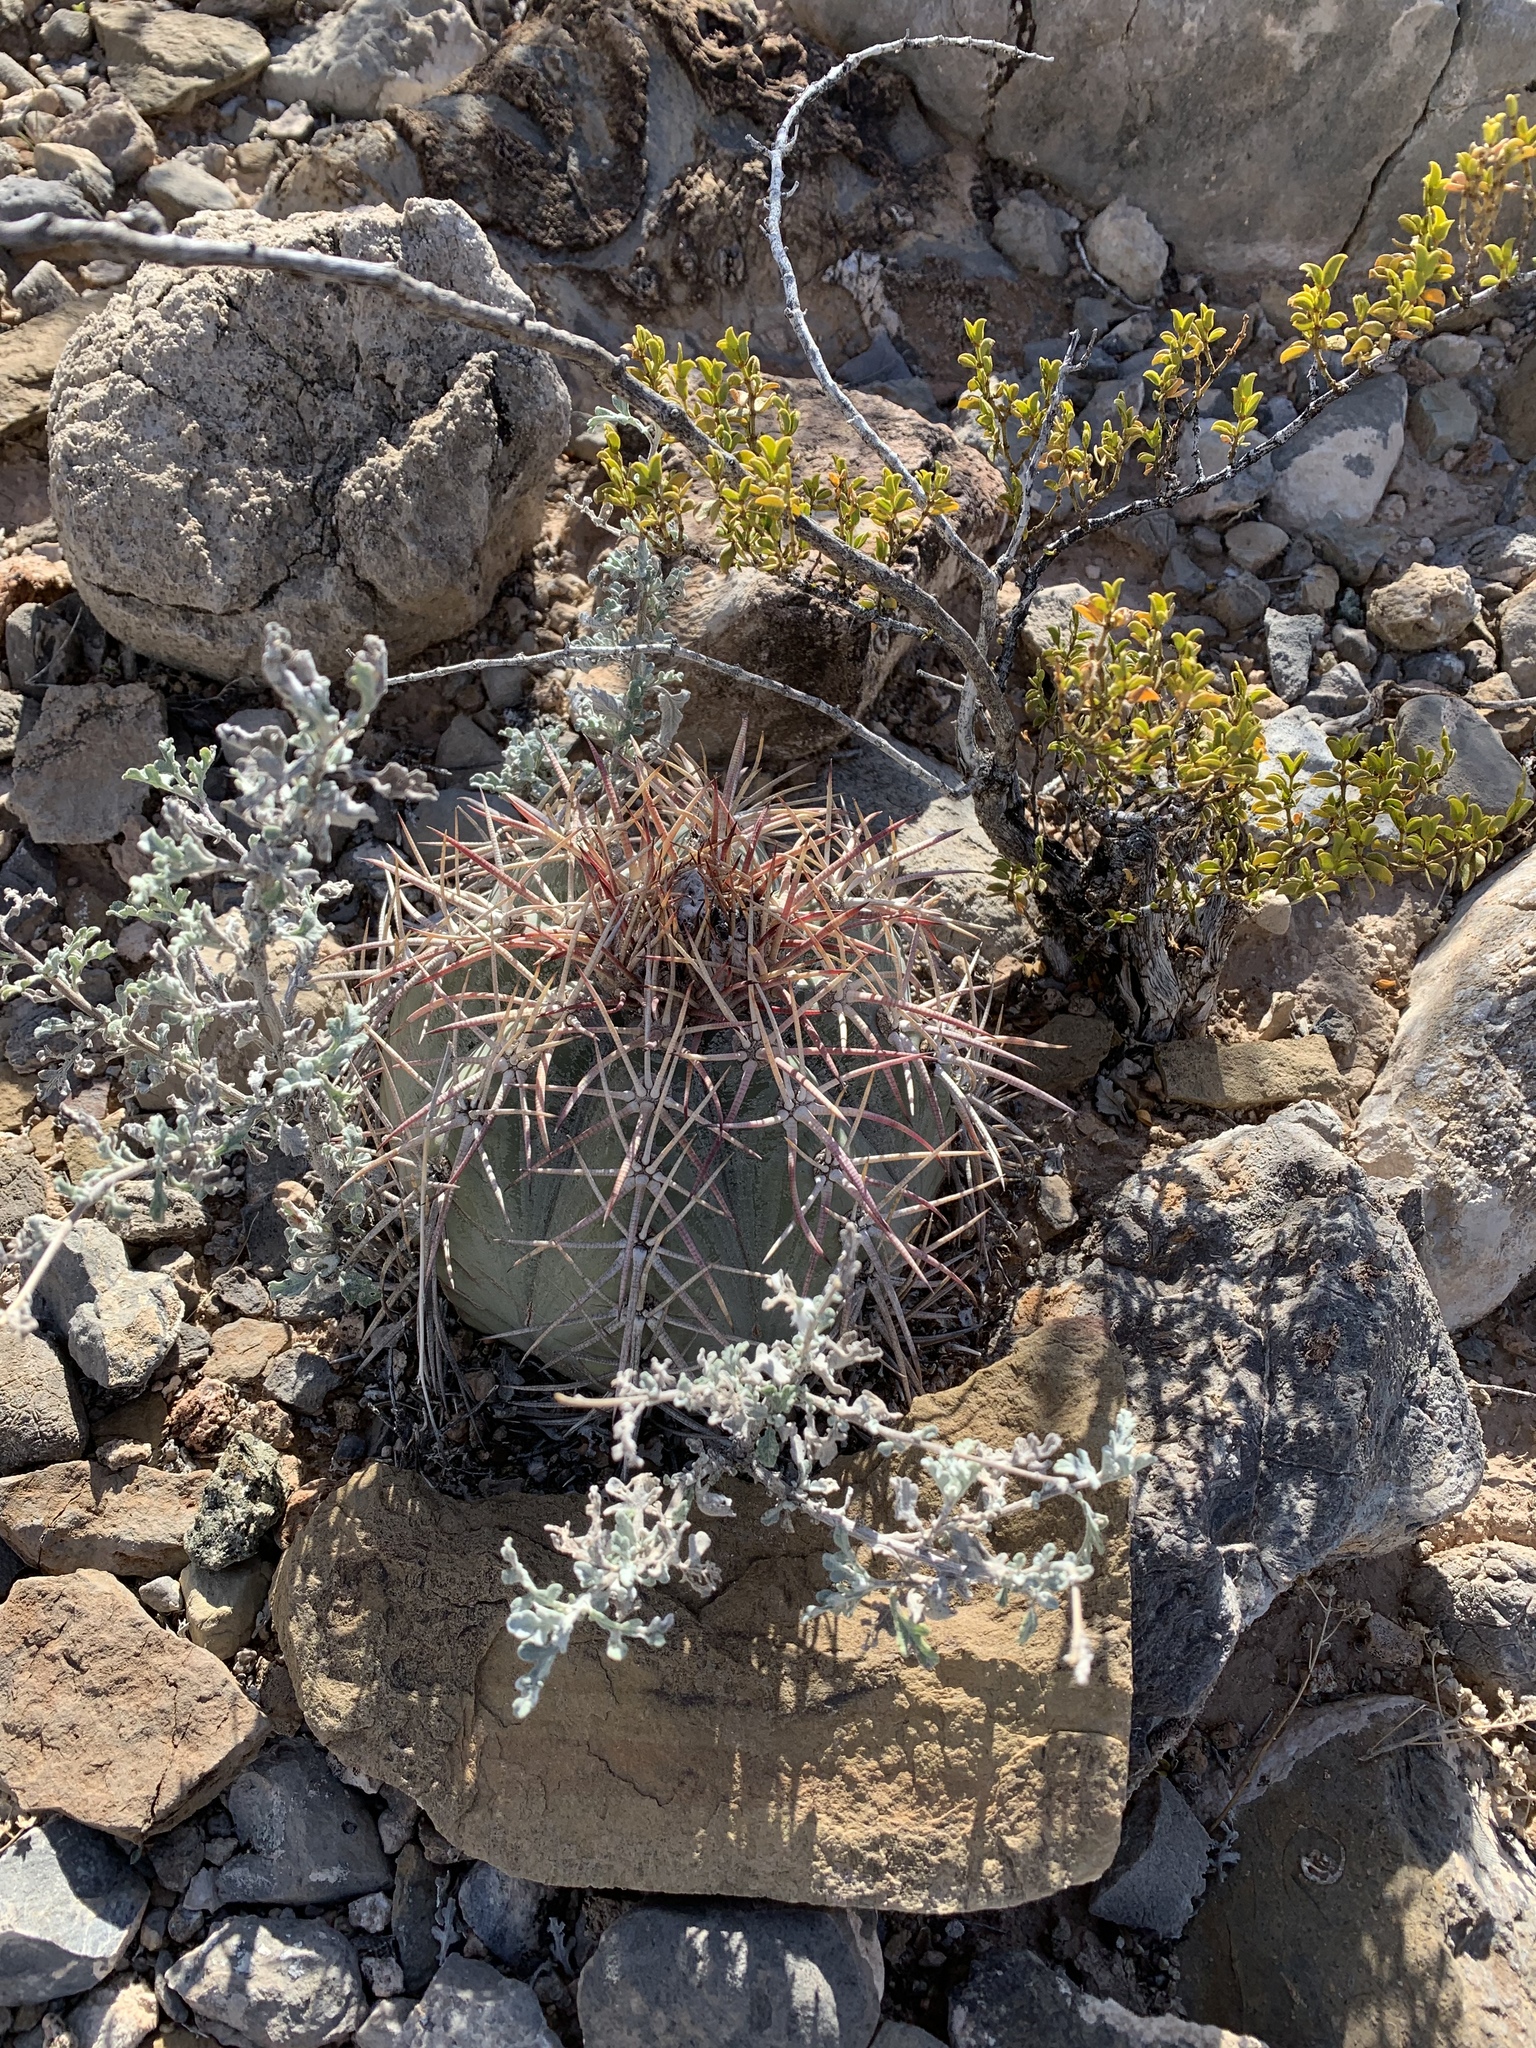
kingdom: Plantae
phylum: Tracheophyta
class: Magnoliopsida
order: Caryophyllales
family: Cactaceae
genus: Echinocactus
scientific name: Echinocactus horizonthalonius
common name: Devilshead
